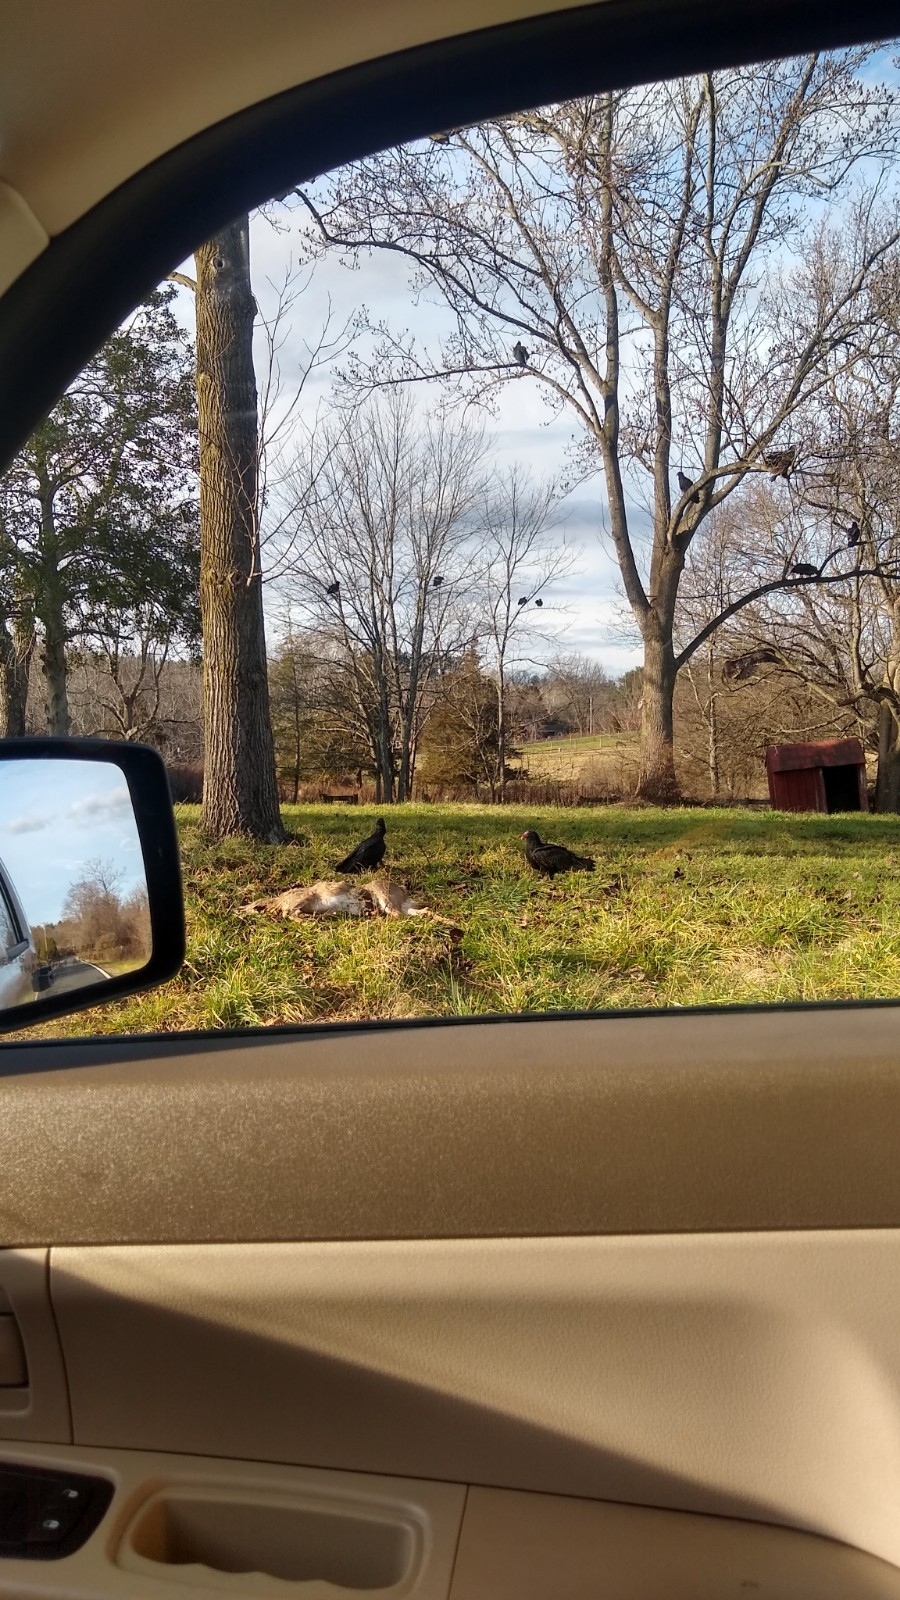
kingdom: Animalia
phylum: Chordata
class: Aves
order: Accipitriformes
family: Cathartidae
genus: Coragyps
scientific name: Coragyps atratus
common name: Black vulture
